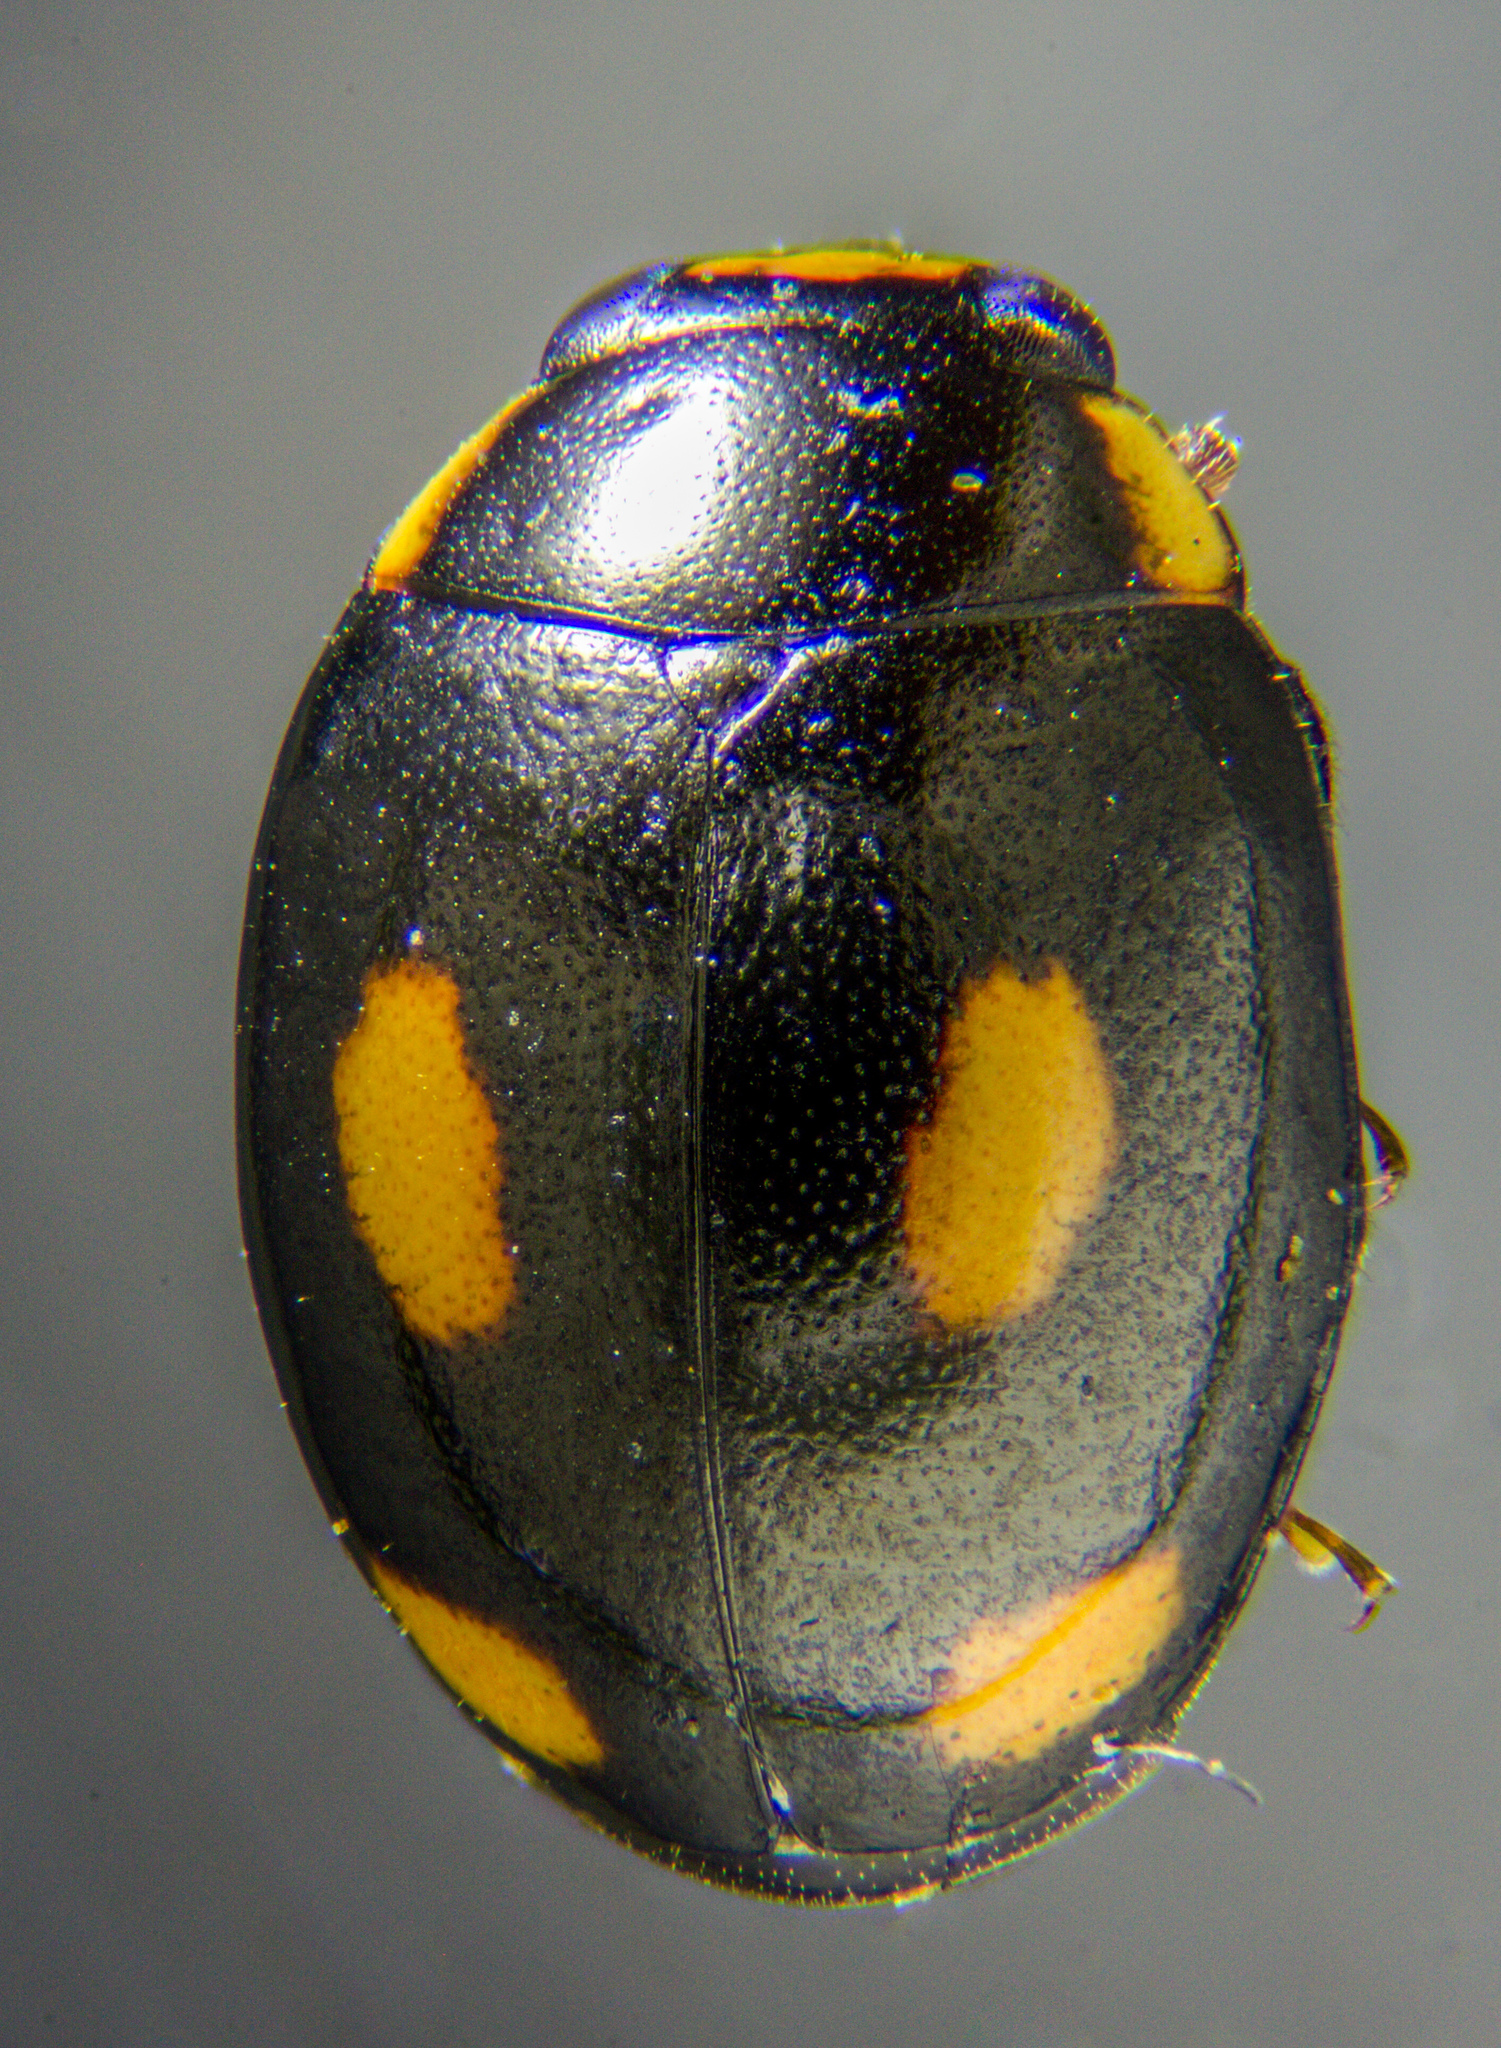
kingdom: Animalia
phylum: Arthropoda
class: Insecta
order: Coleoptera
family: Coccinellidae
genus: Hyperaspis
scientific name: Hyperaspis quadrioculata
